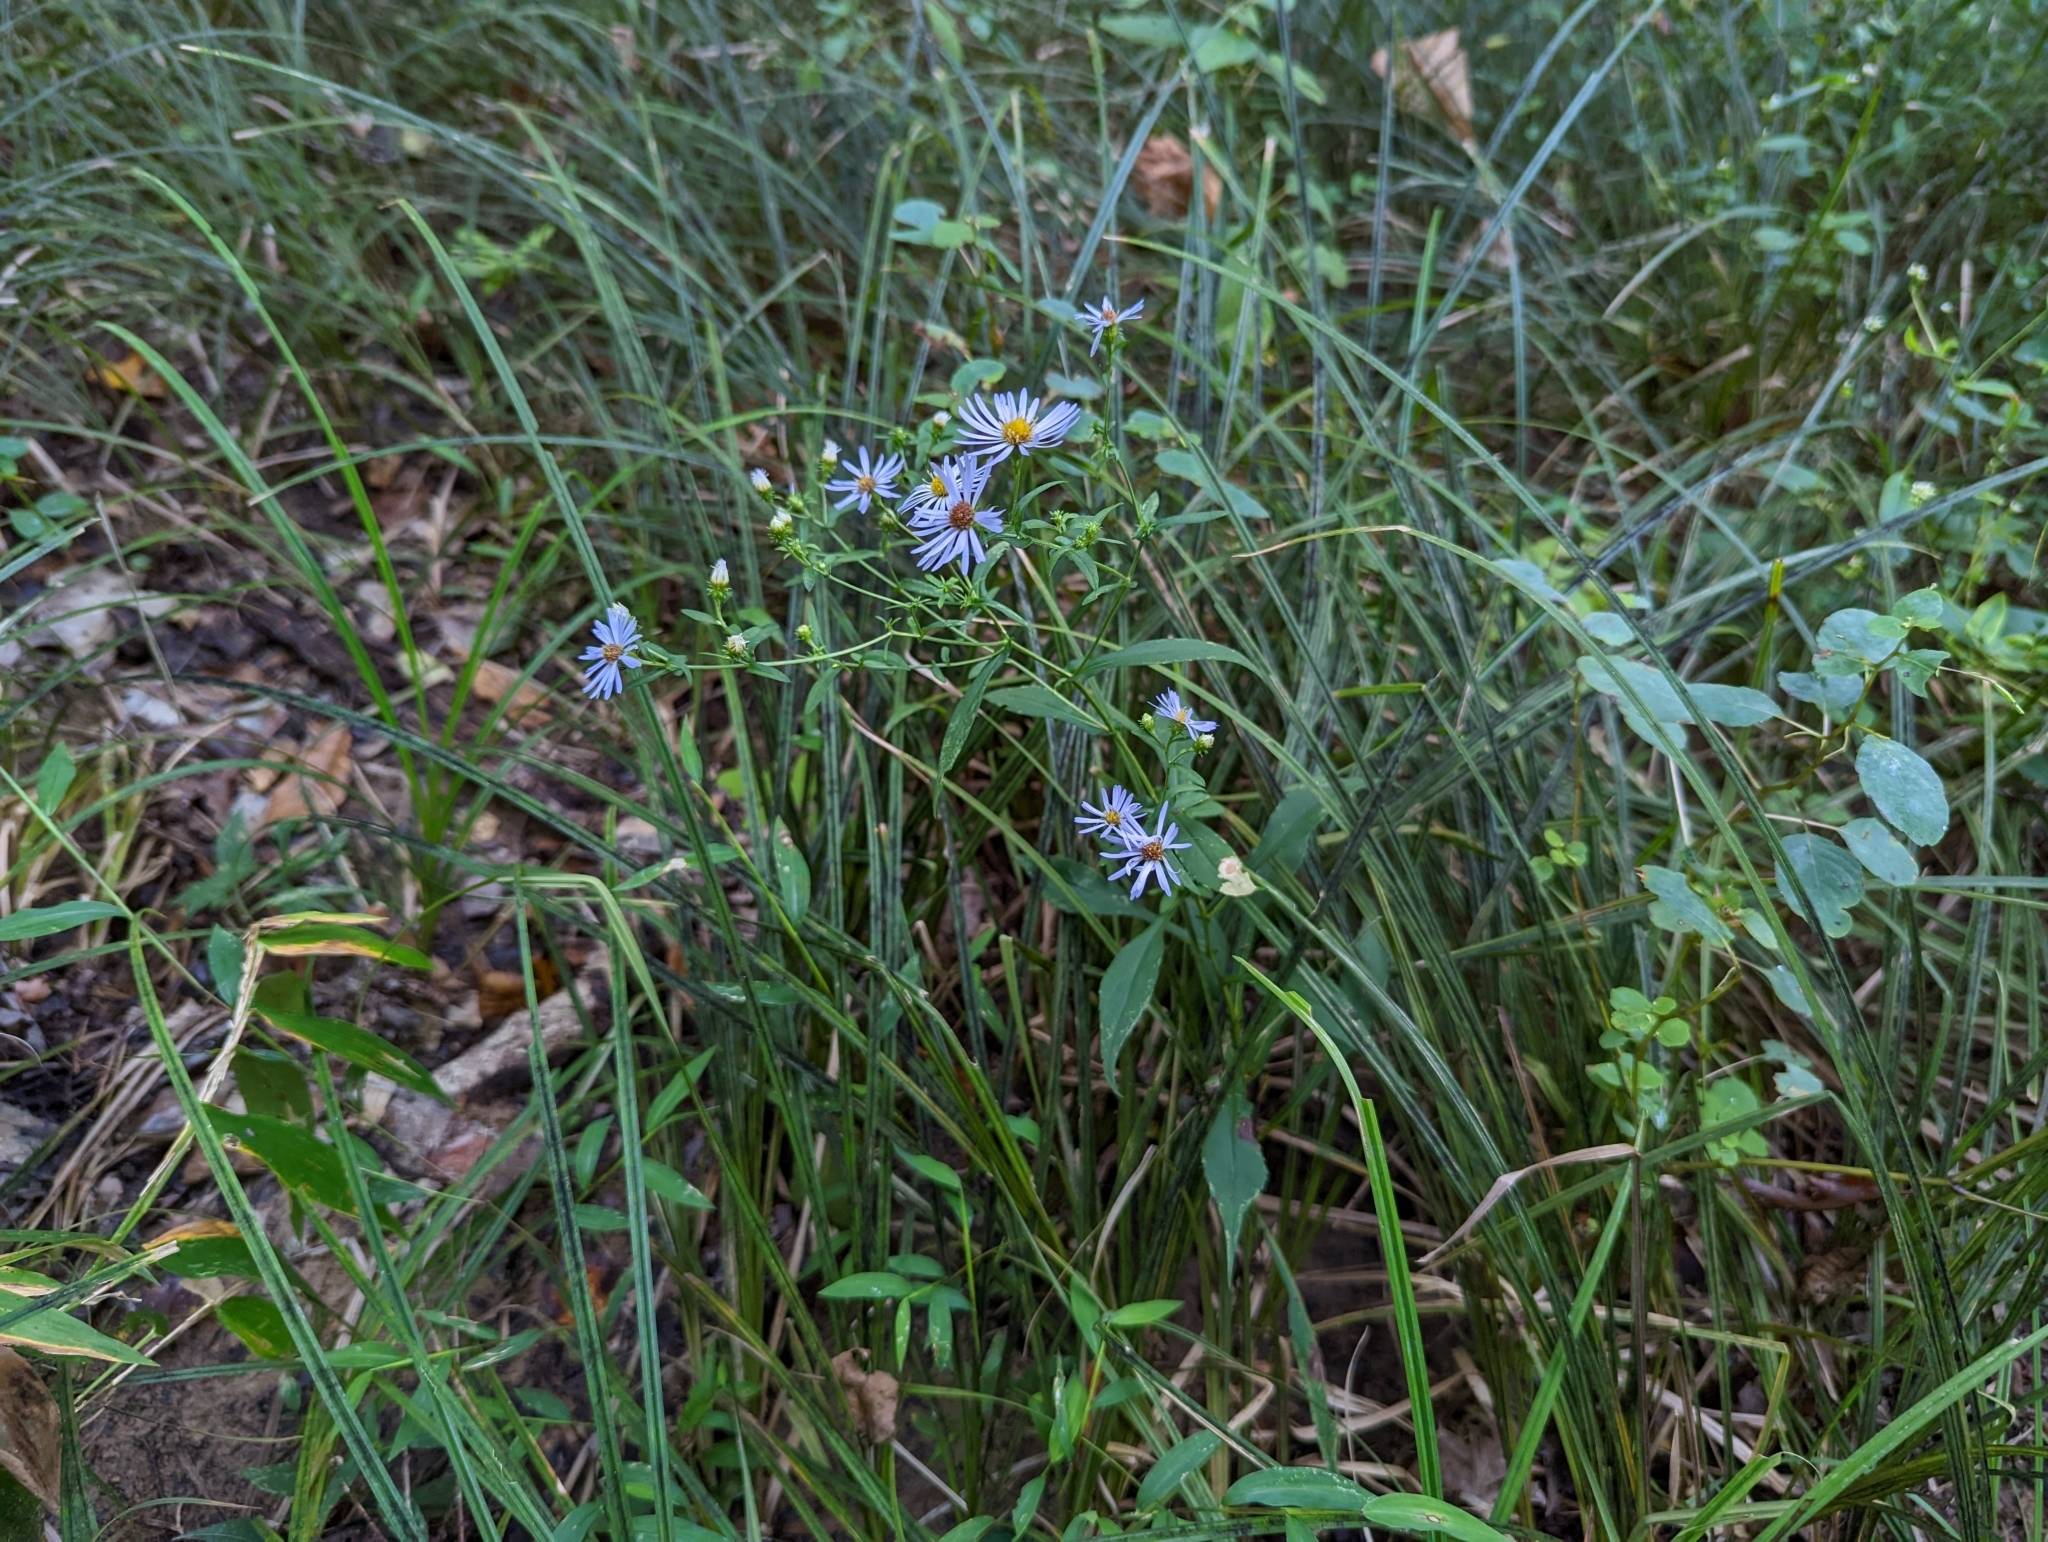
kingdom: Plantae
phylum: Tracheophyta
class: Magnoliopsida
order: Asterales
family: Asteraceae
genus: Symphyotrichum
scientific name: Symphyotrichum prenanthoides
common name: Crooked-stem aster
